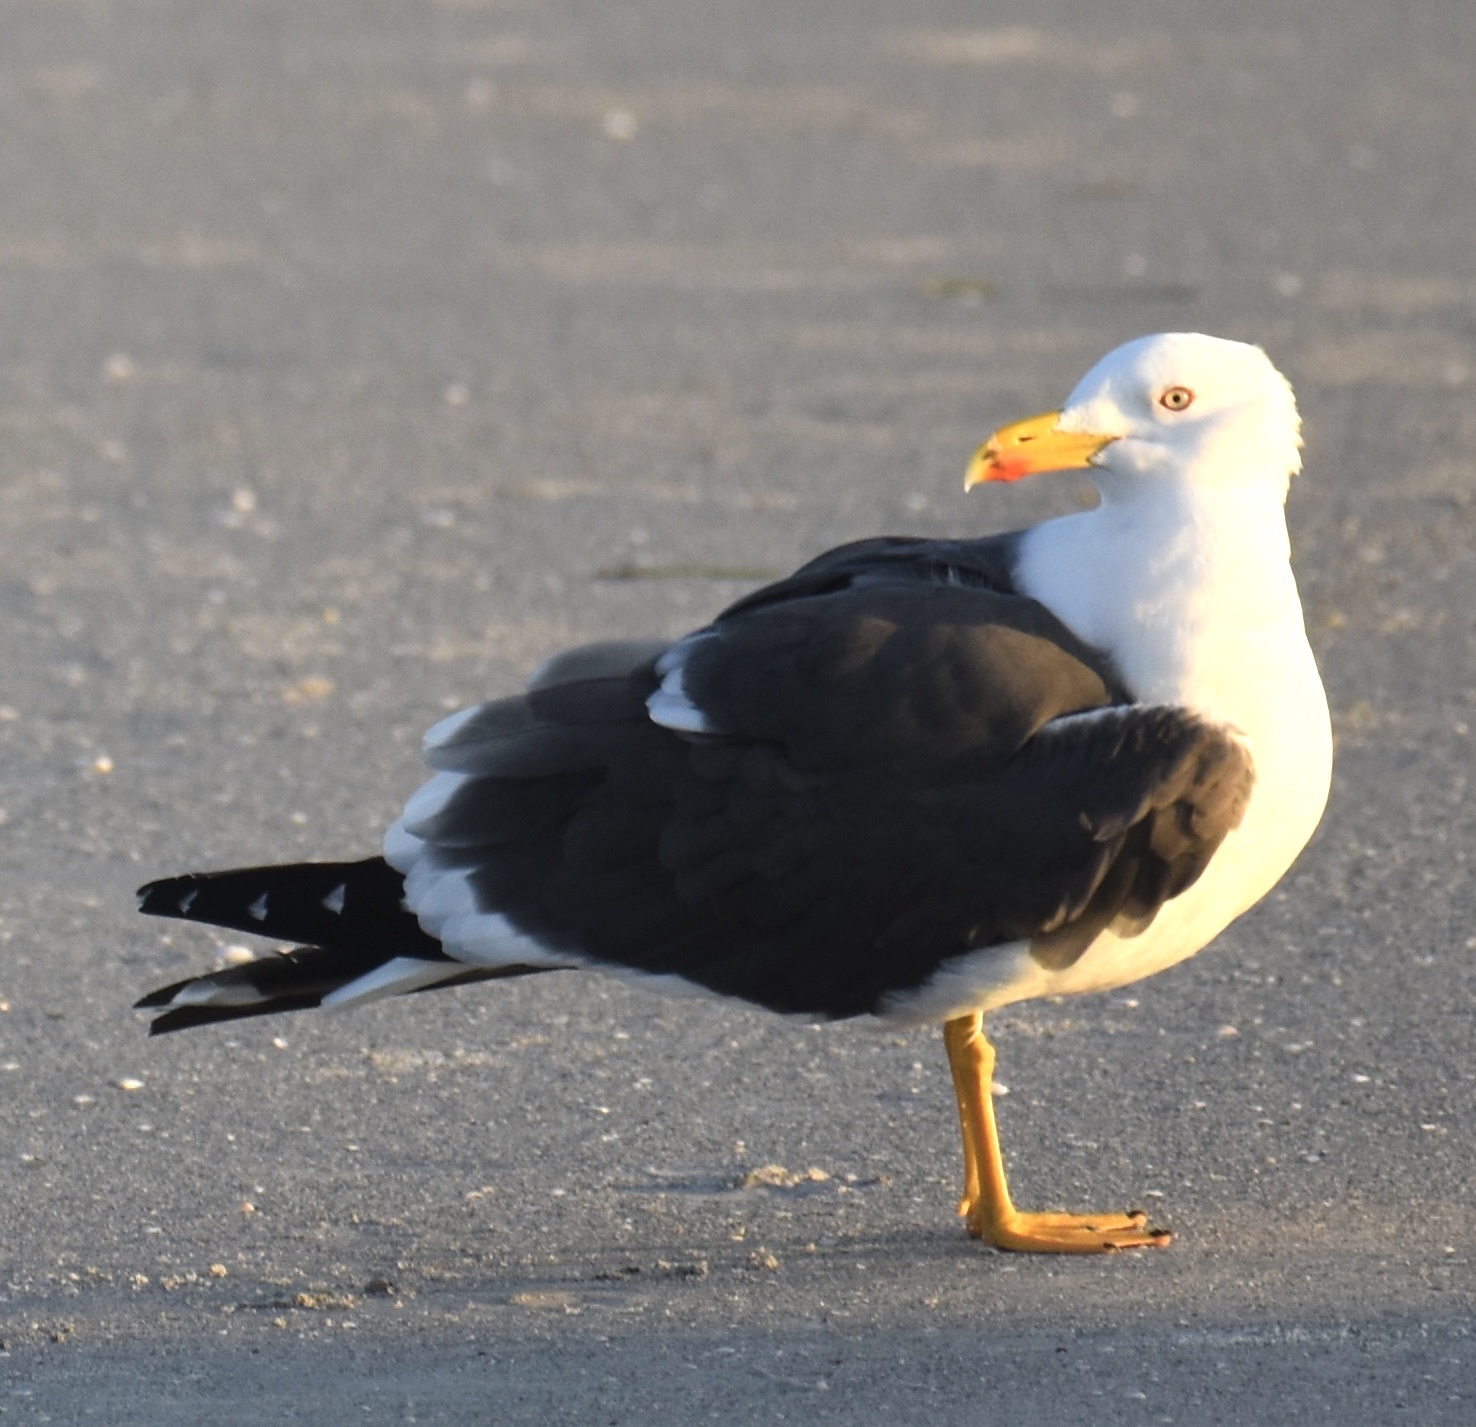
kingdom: Animalia
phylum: Chordata
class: Aves
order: Charadriiformes
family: Laridae
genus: Larus
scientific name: Larus fuscus
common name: Lesser black-backed gull
